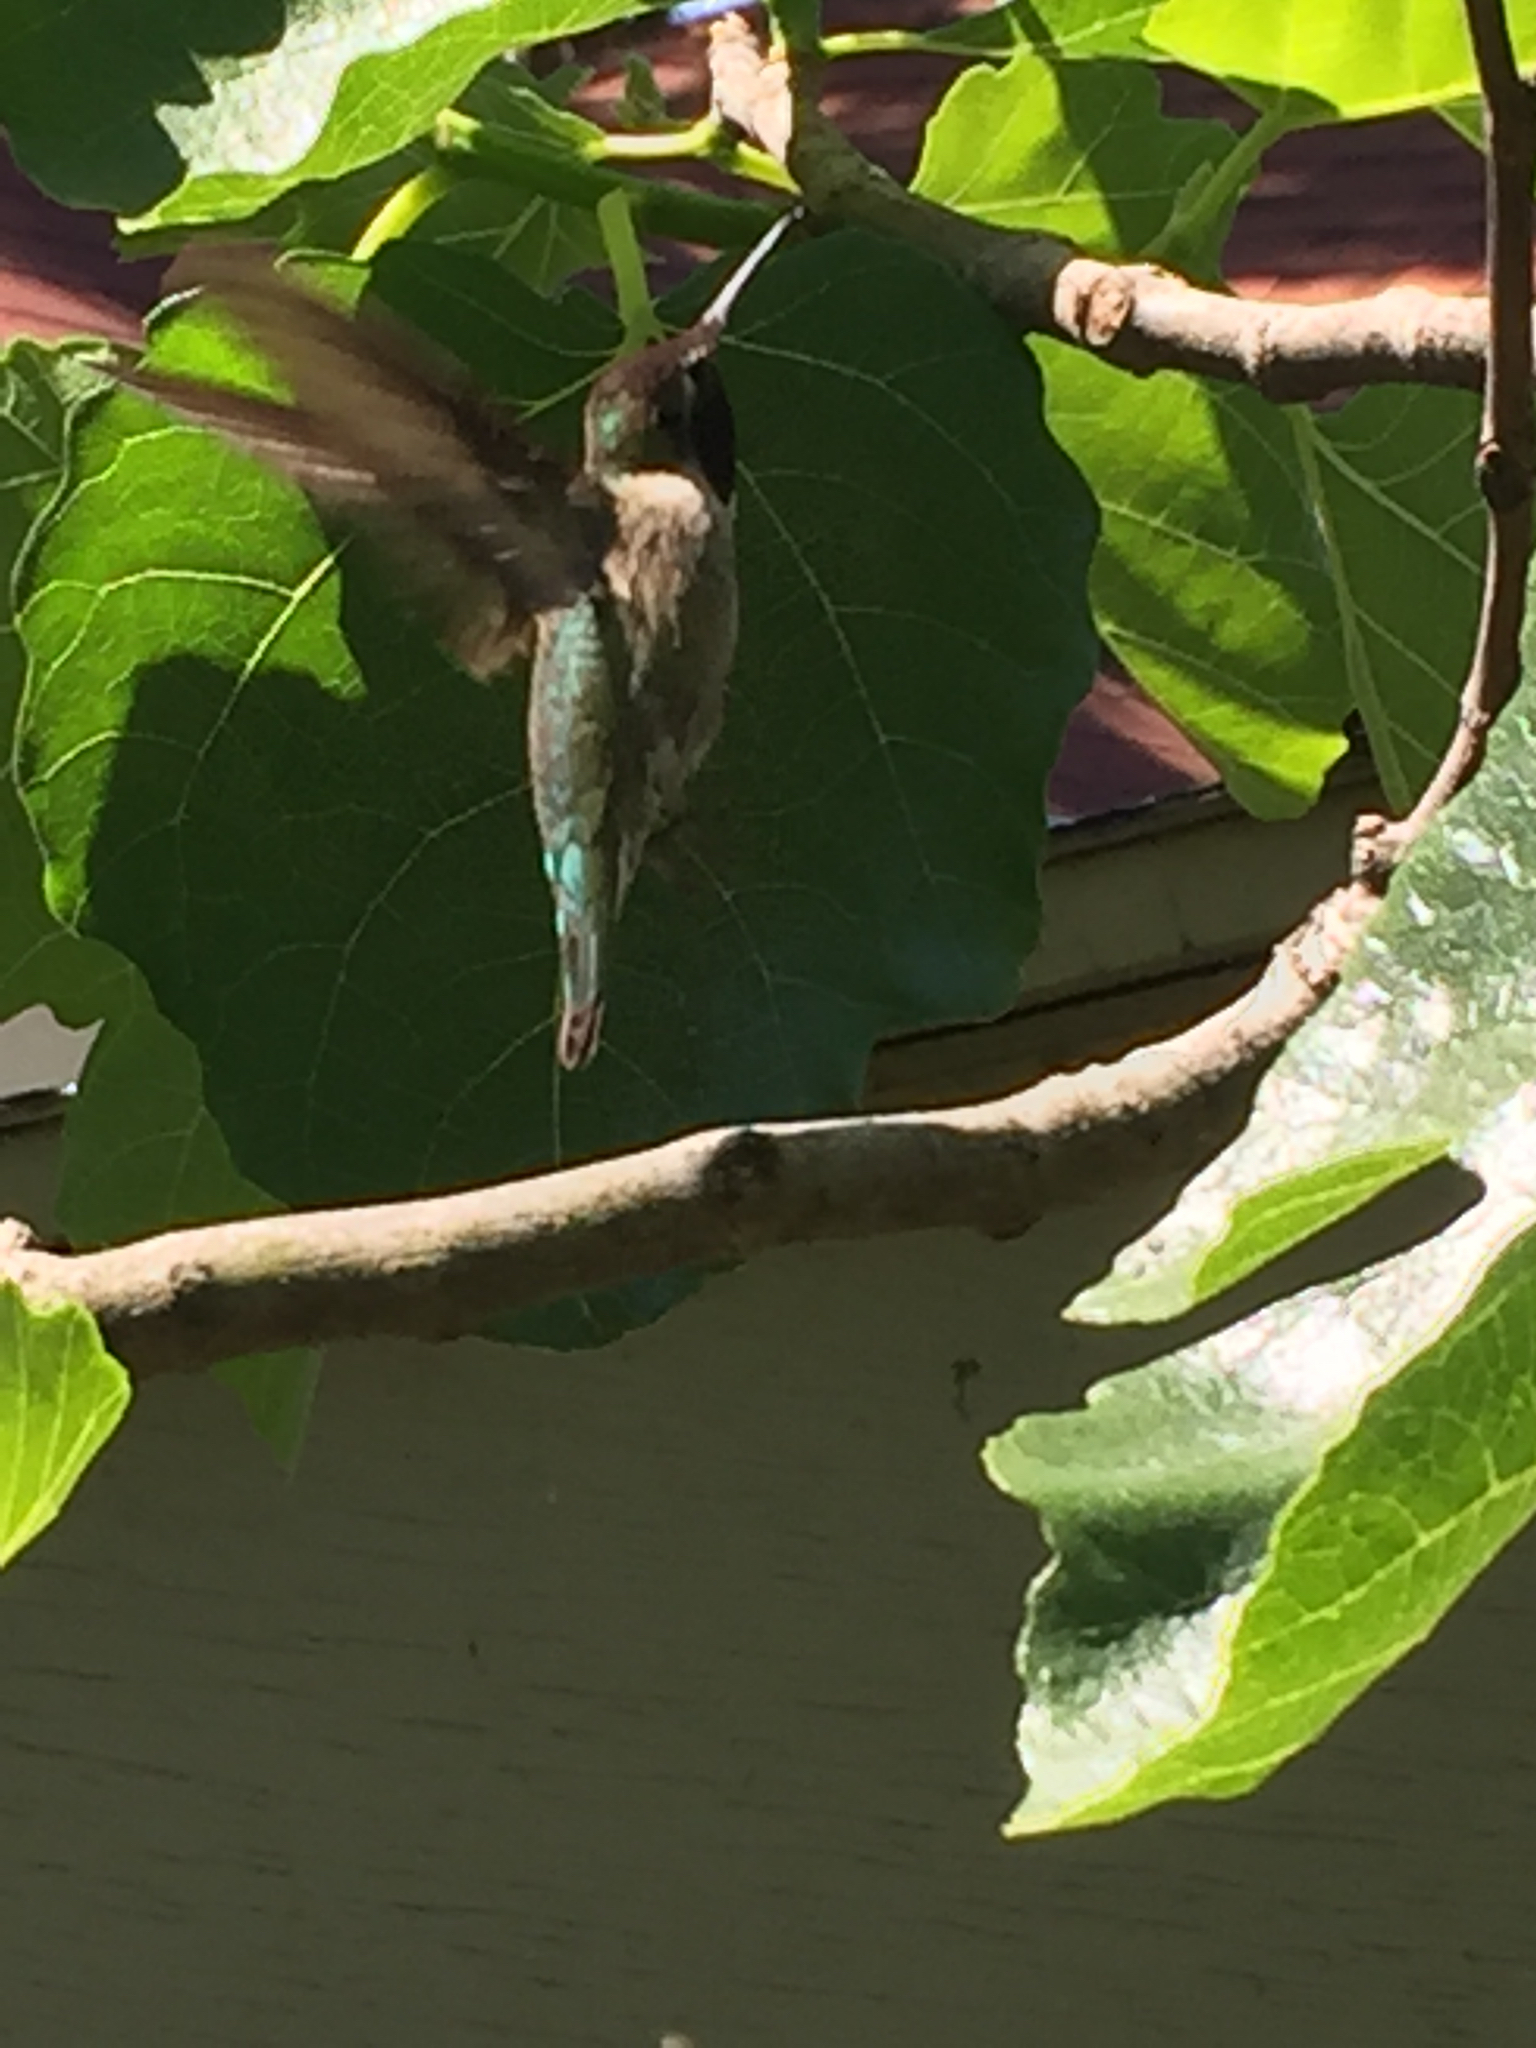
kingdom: Animalia
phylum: Chordata
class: Aves
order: Apodiformes
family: Trochilidae
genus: Calypte
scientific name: Calypte anna
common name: Anna's hummingbird
